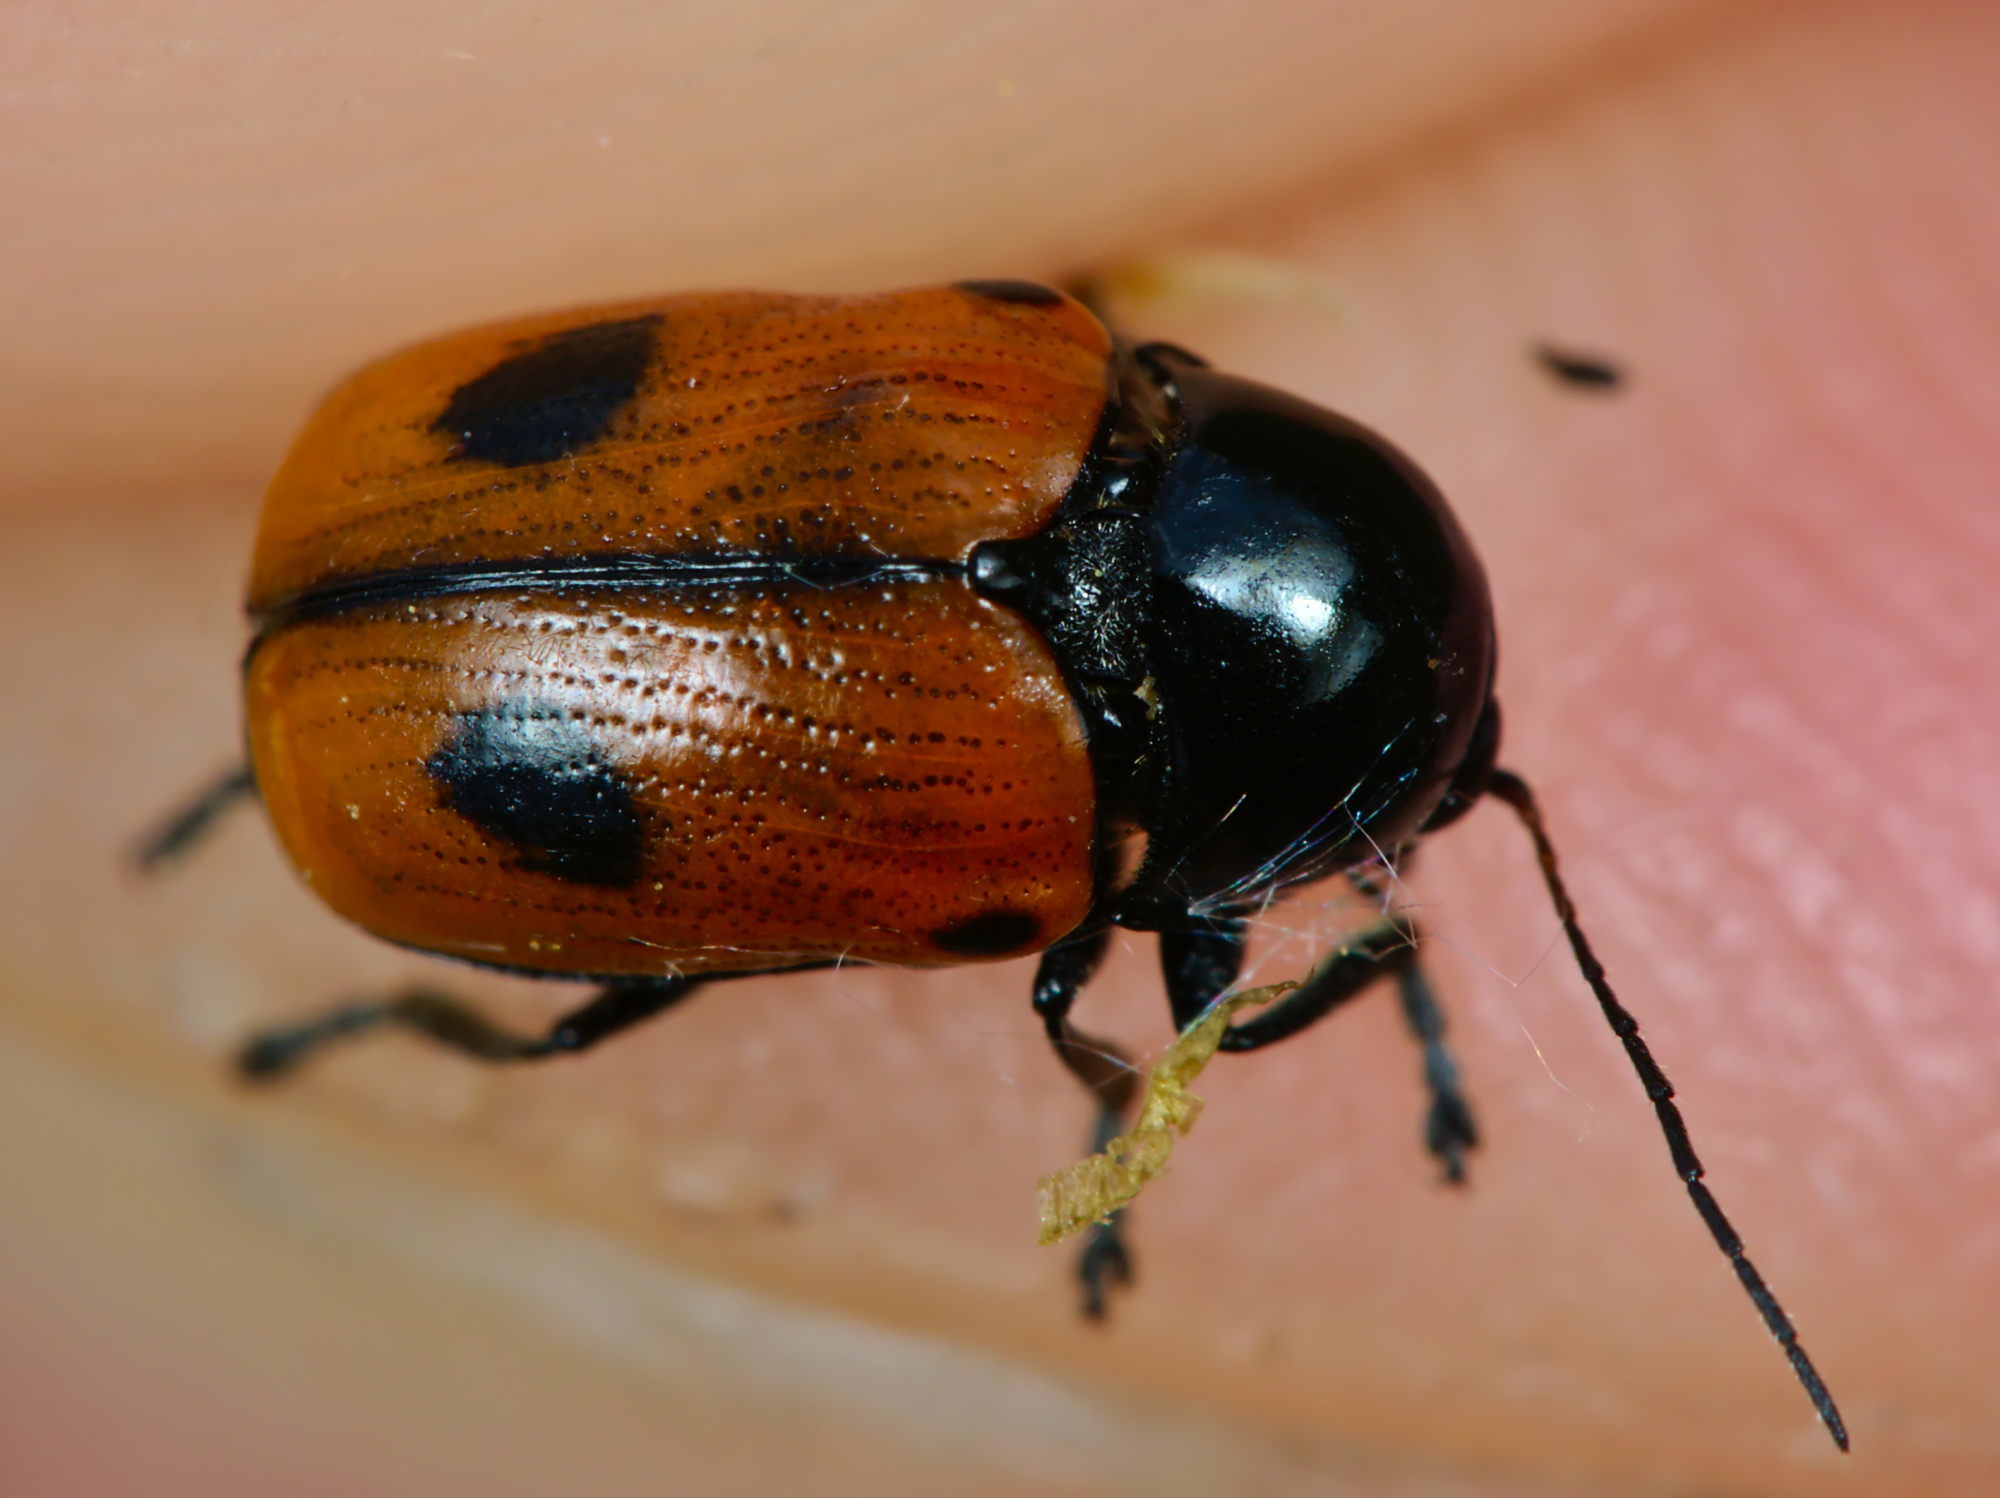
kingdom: Animalia
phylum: Arthropoda
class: Insecta
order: Coleoptera
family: Chrysomelidae
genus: Chiridopsis
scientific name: Chiridopsis bipunctata
